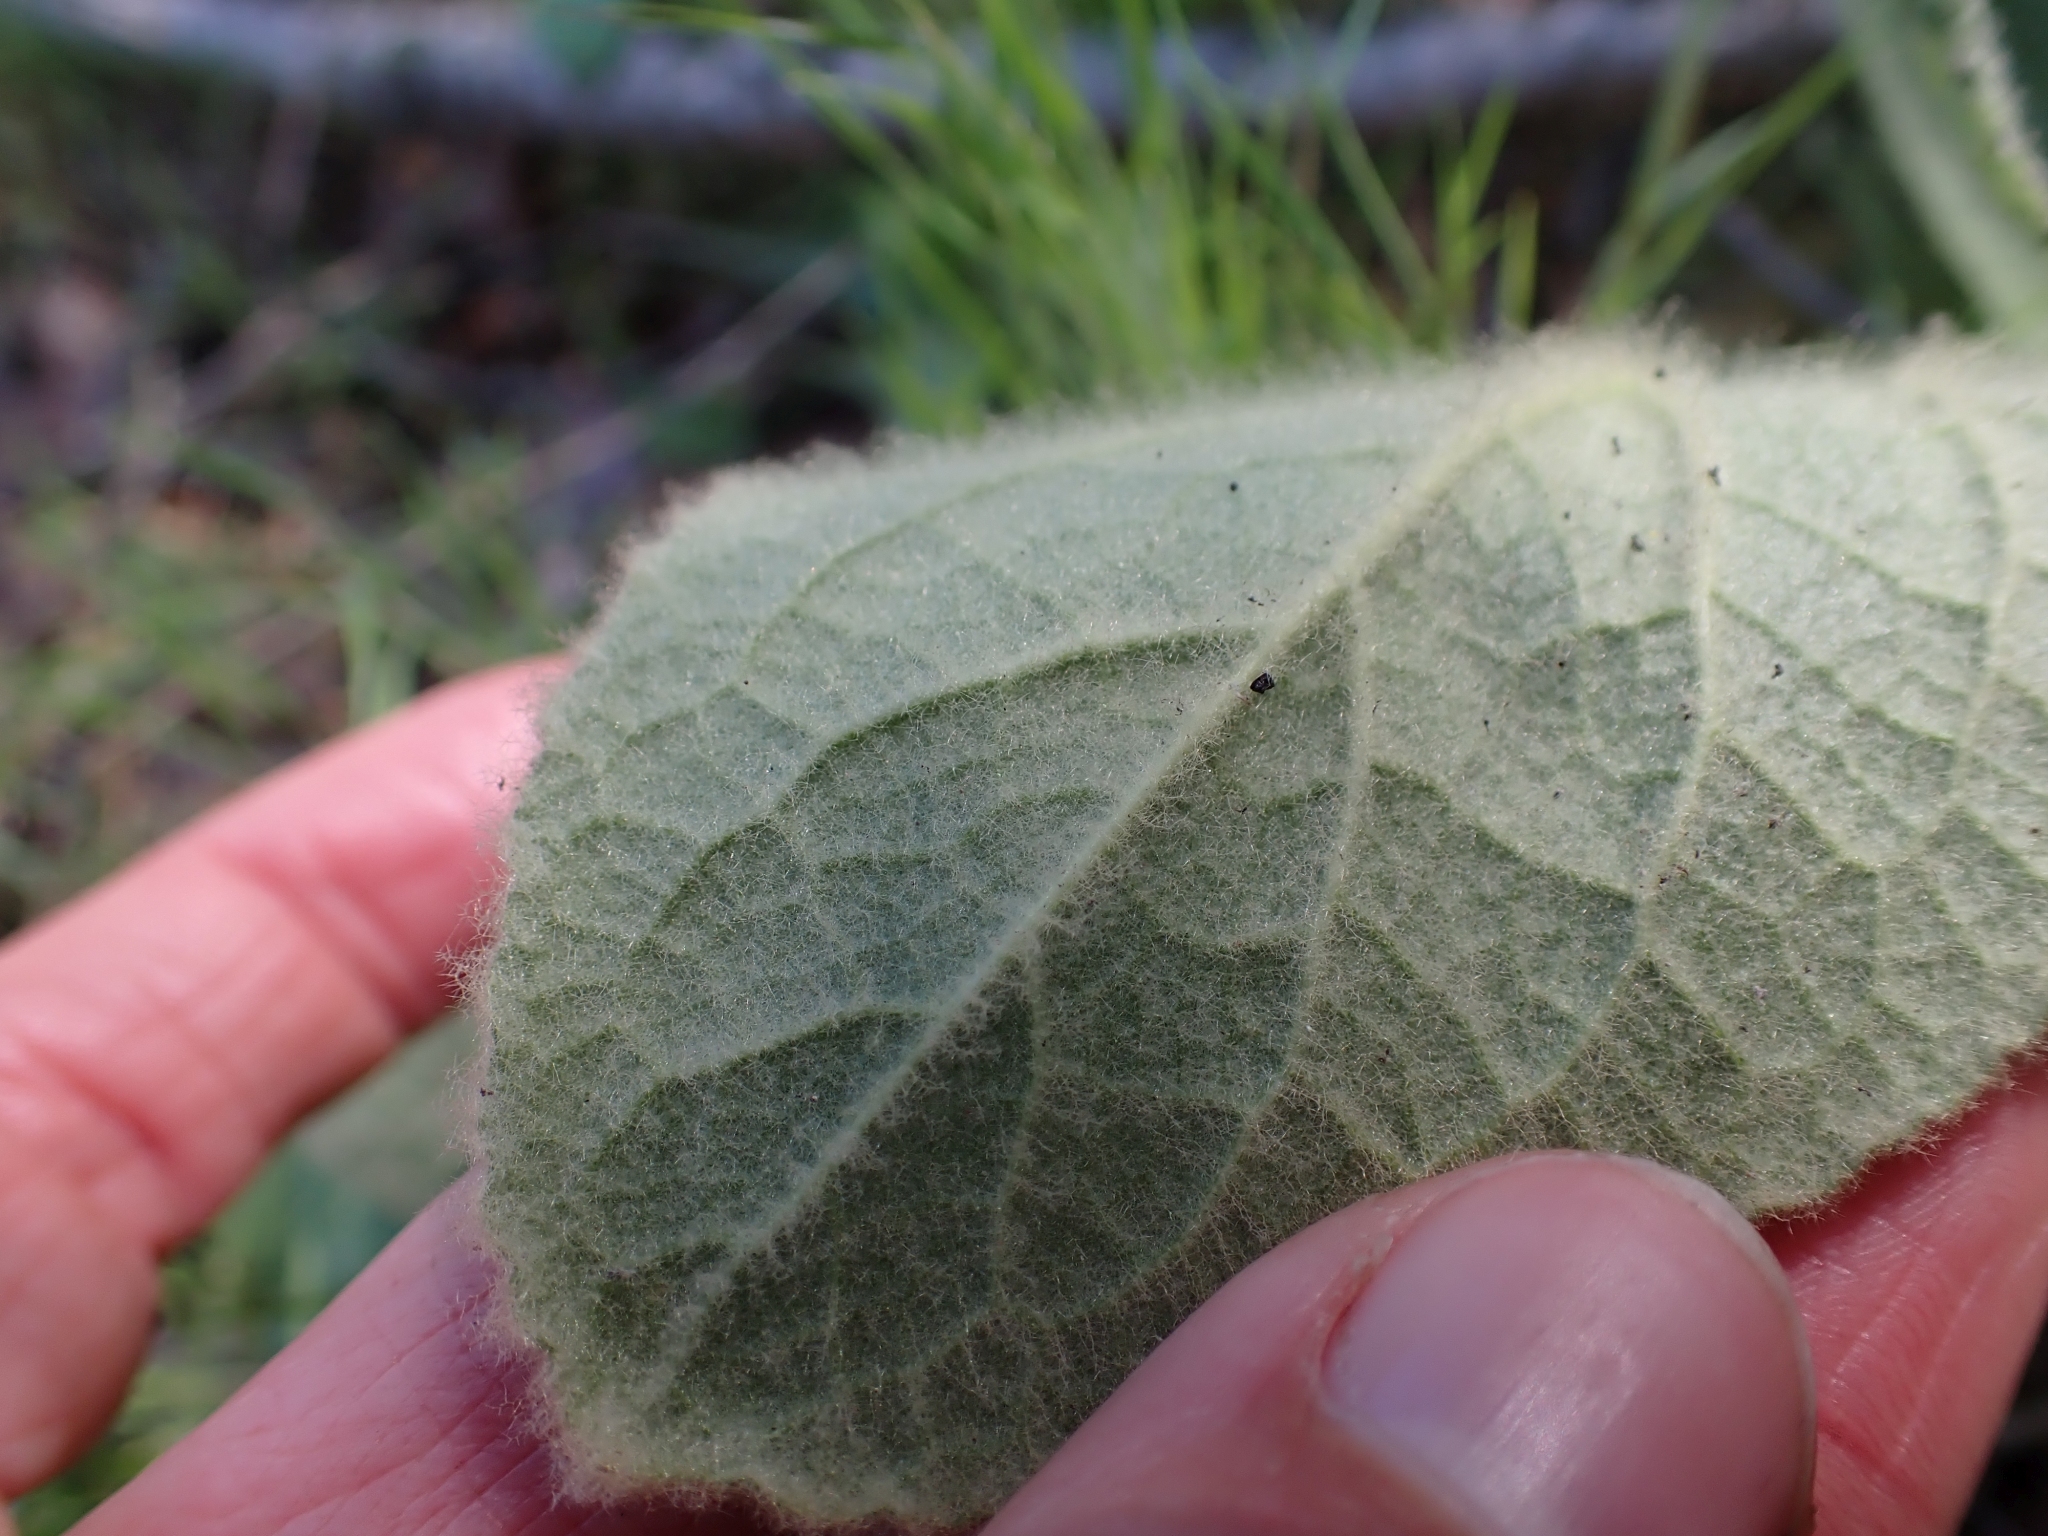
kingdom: Plantae
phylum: Tracheophyta
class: Magnoliopsida
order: Lamiales
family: Scrophulariaceae
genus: Verbascum
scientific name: Verbascum thapsus
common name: Common mullein
